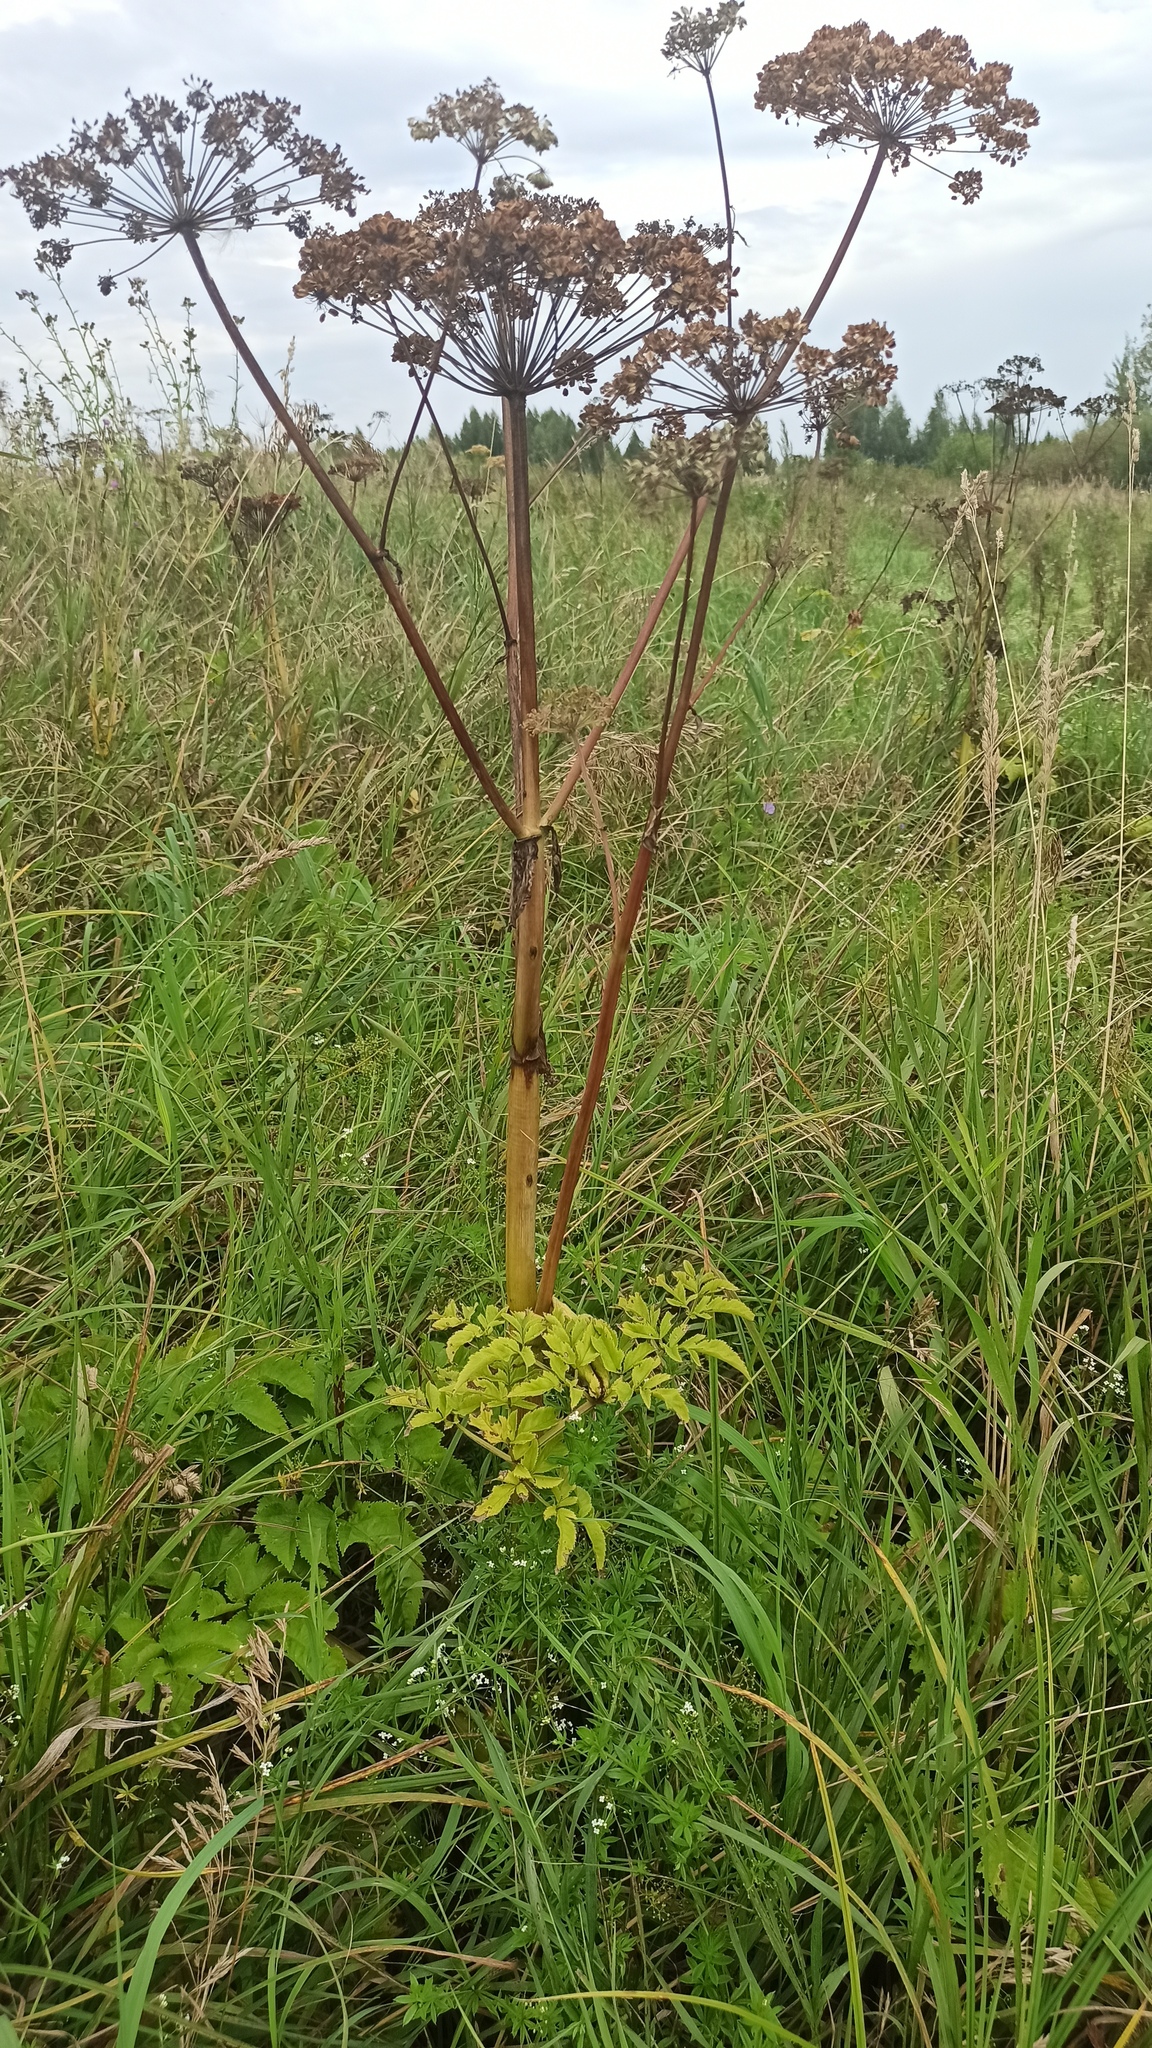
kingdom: Plantae
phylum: Tracheophyta
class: Magnoliopsida
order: Apiales
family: Apiaceae
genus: Angelica
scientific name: Angelica sylvestris
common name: Wild angelica
